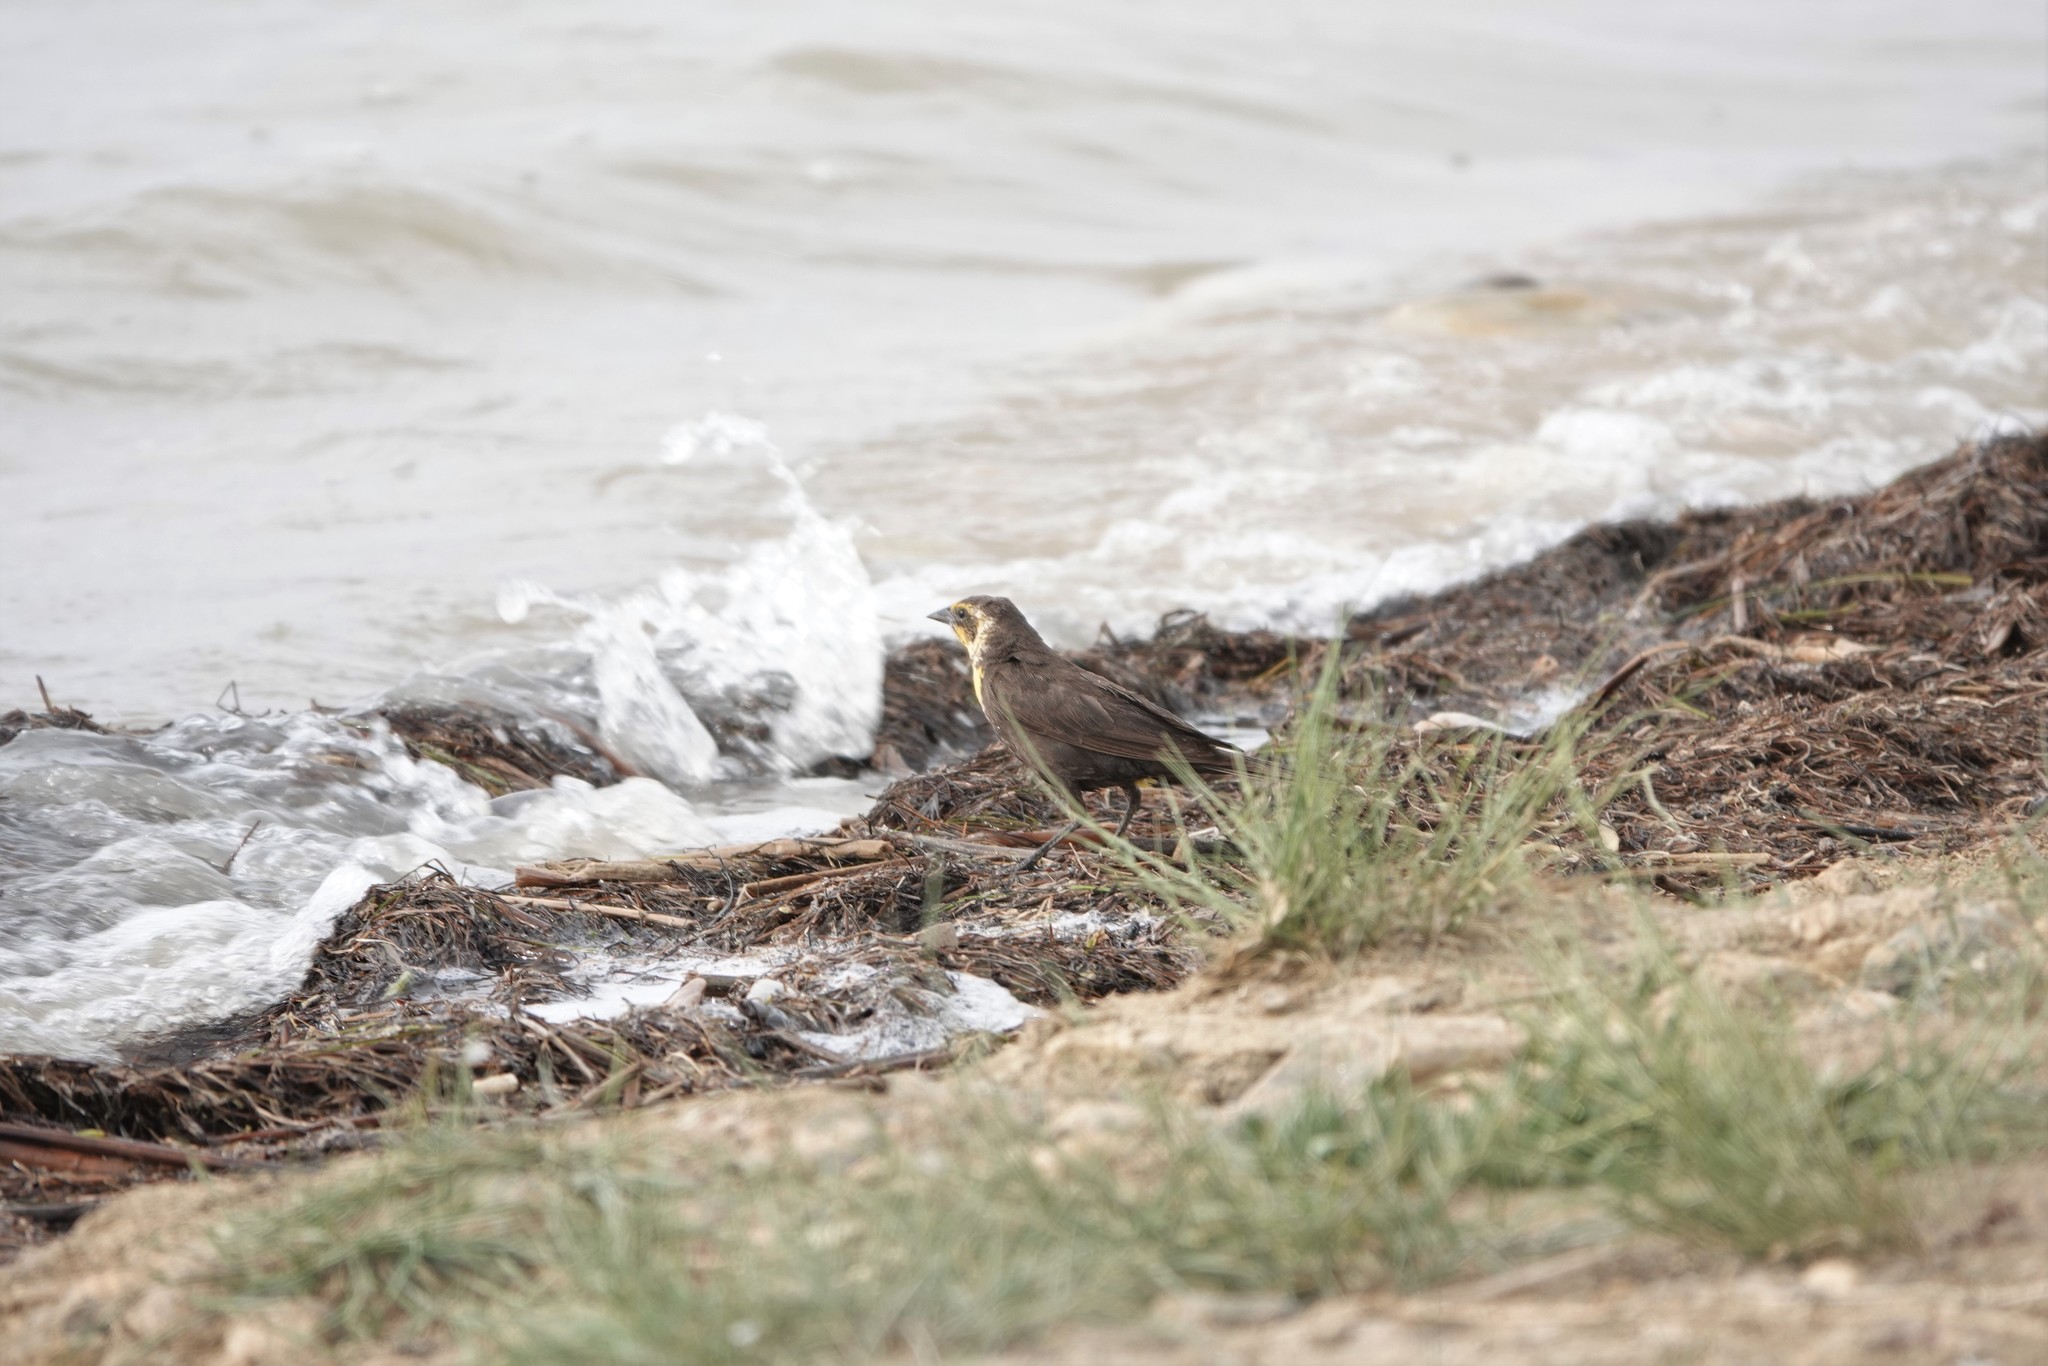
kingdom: Animalia
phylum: Chordata
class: Aves
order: Passeriformes
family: Icteridae
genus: Xanthocephalus
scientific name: Xanthocephalus xanthocephalus
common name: Yellow-headed blackbird
